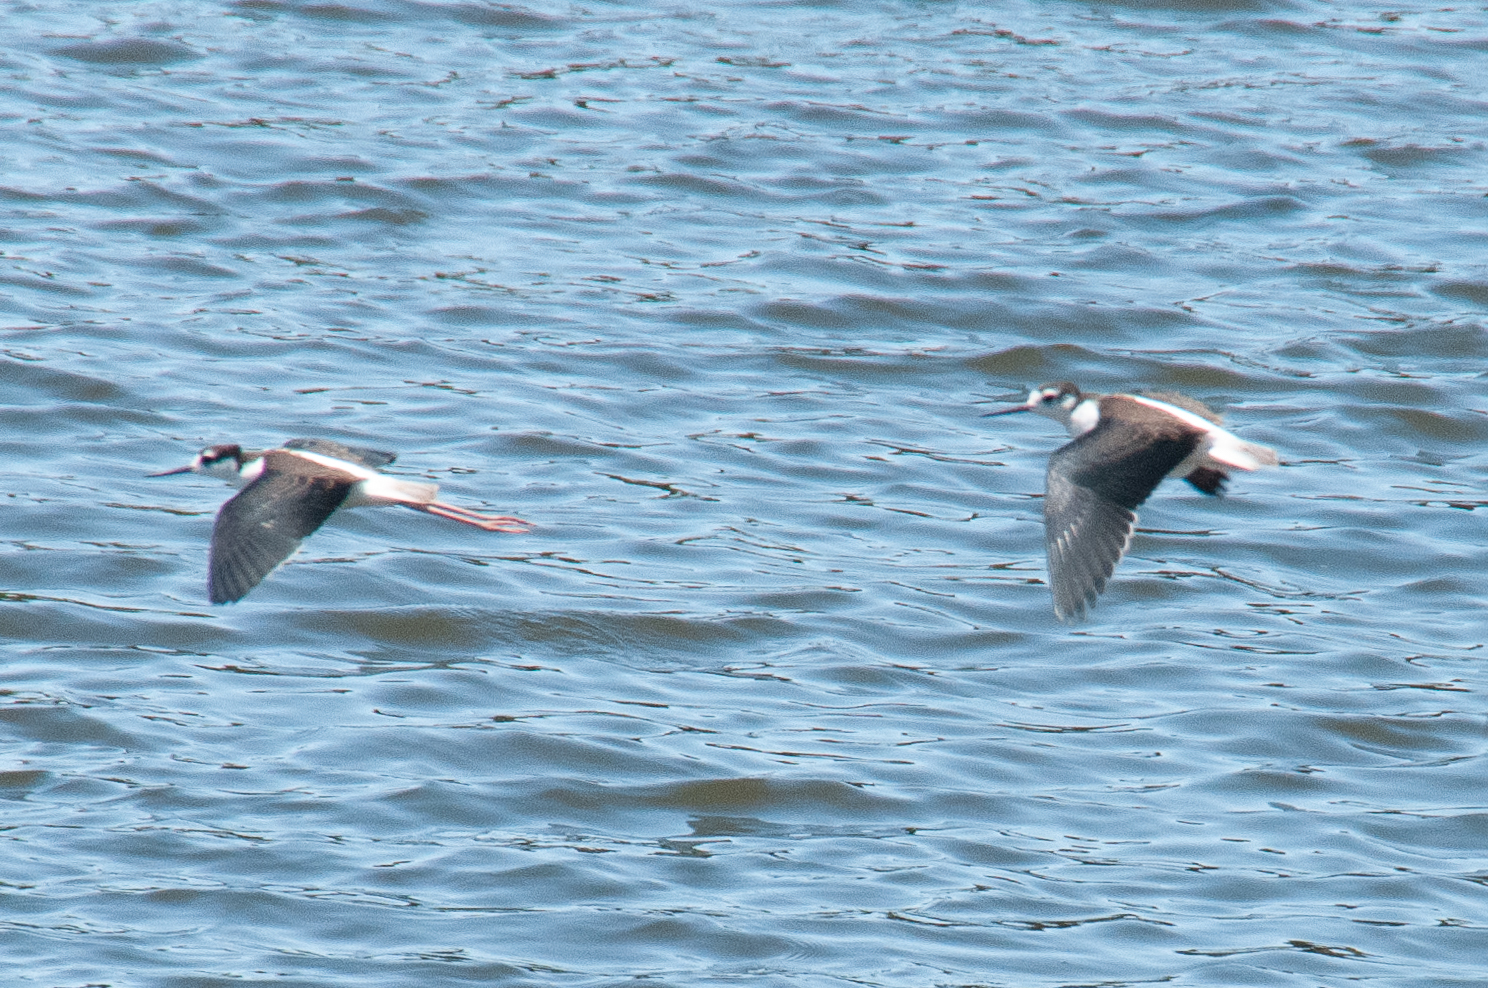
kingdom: Animalia
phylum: Chordata
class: Aves
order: Charadriiformes
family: Recurvirostridae
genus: Himantopus
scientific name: Himantopus mexicanus
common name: Black-necked stilt
